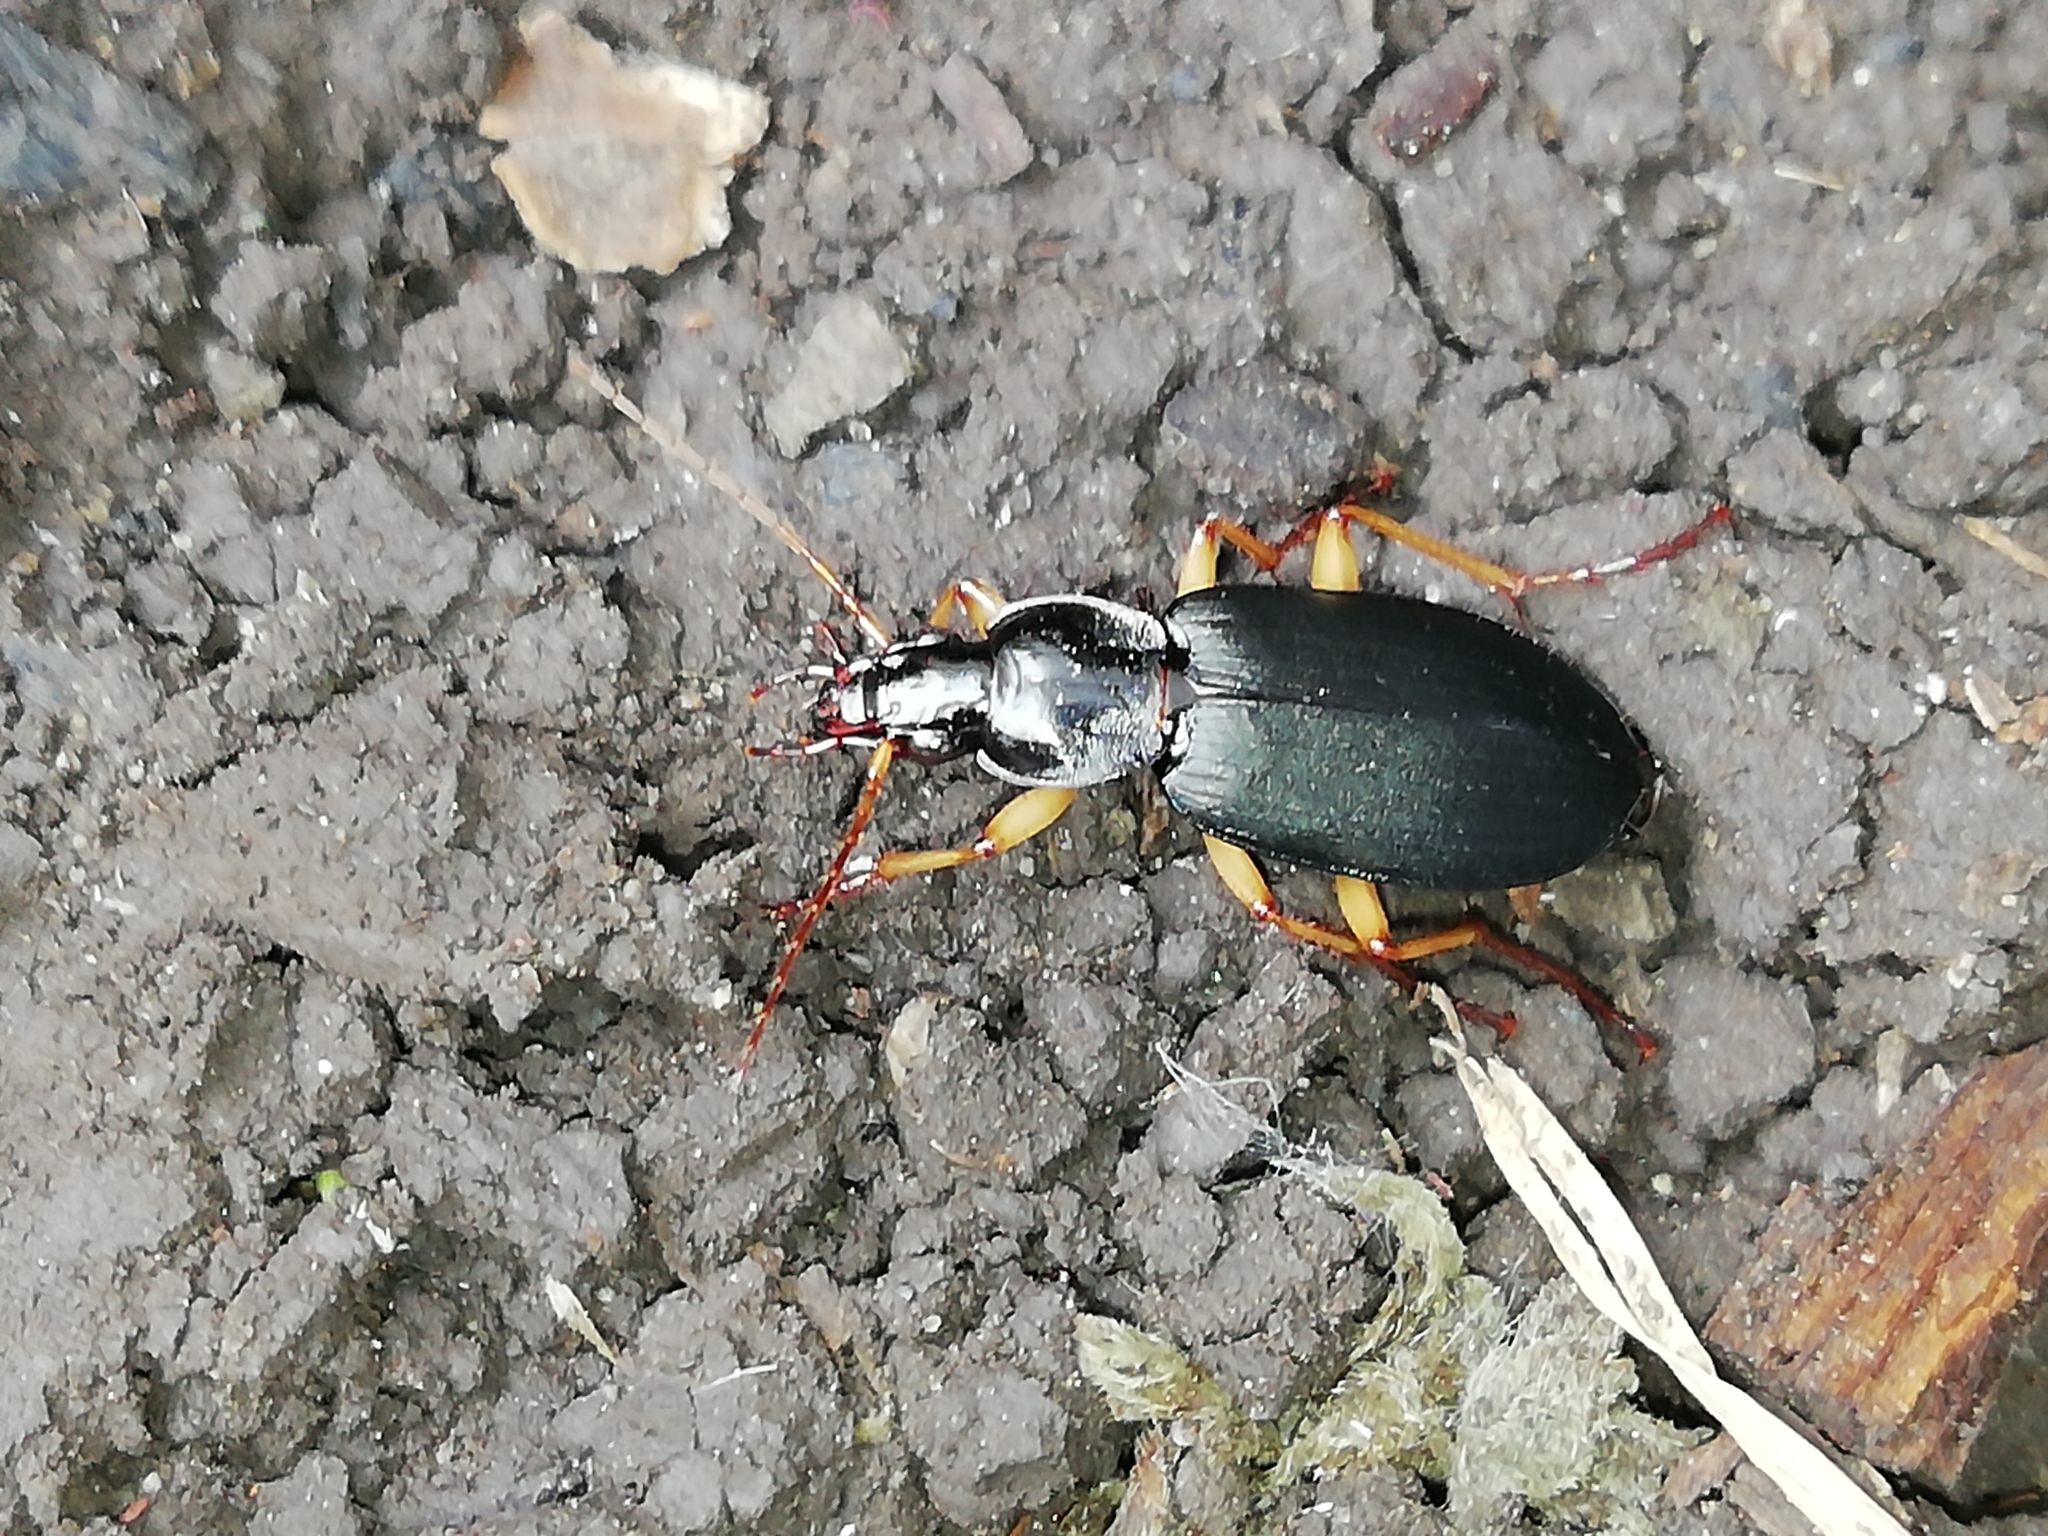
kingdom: Animalia
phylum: Arthropoda
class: Insecta
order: Coleoptera
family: Carabidae
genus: Dolichus
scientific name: Dolichus halensis
